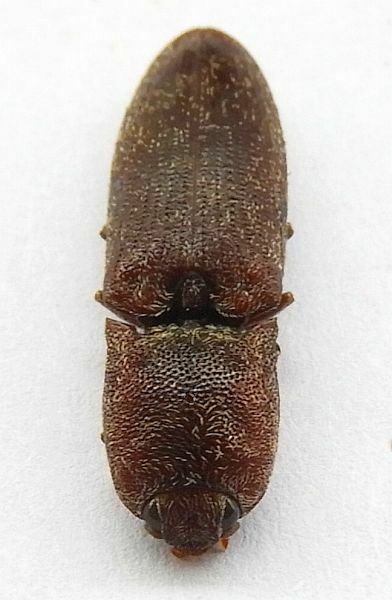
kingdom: Animalia
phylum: Arthropoda
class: Insecta
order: Coleoptera
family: Elateridae
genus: Lacon
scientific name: Lacon
